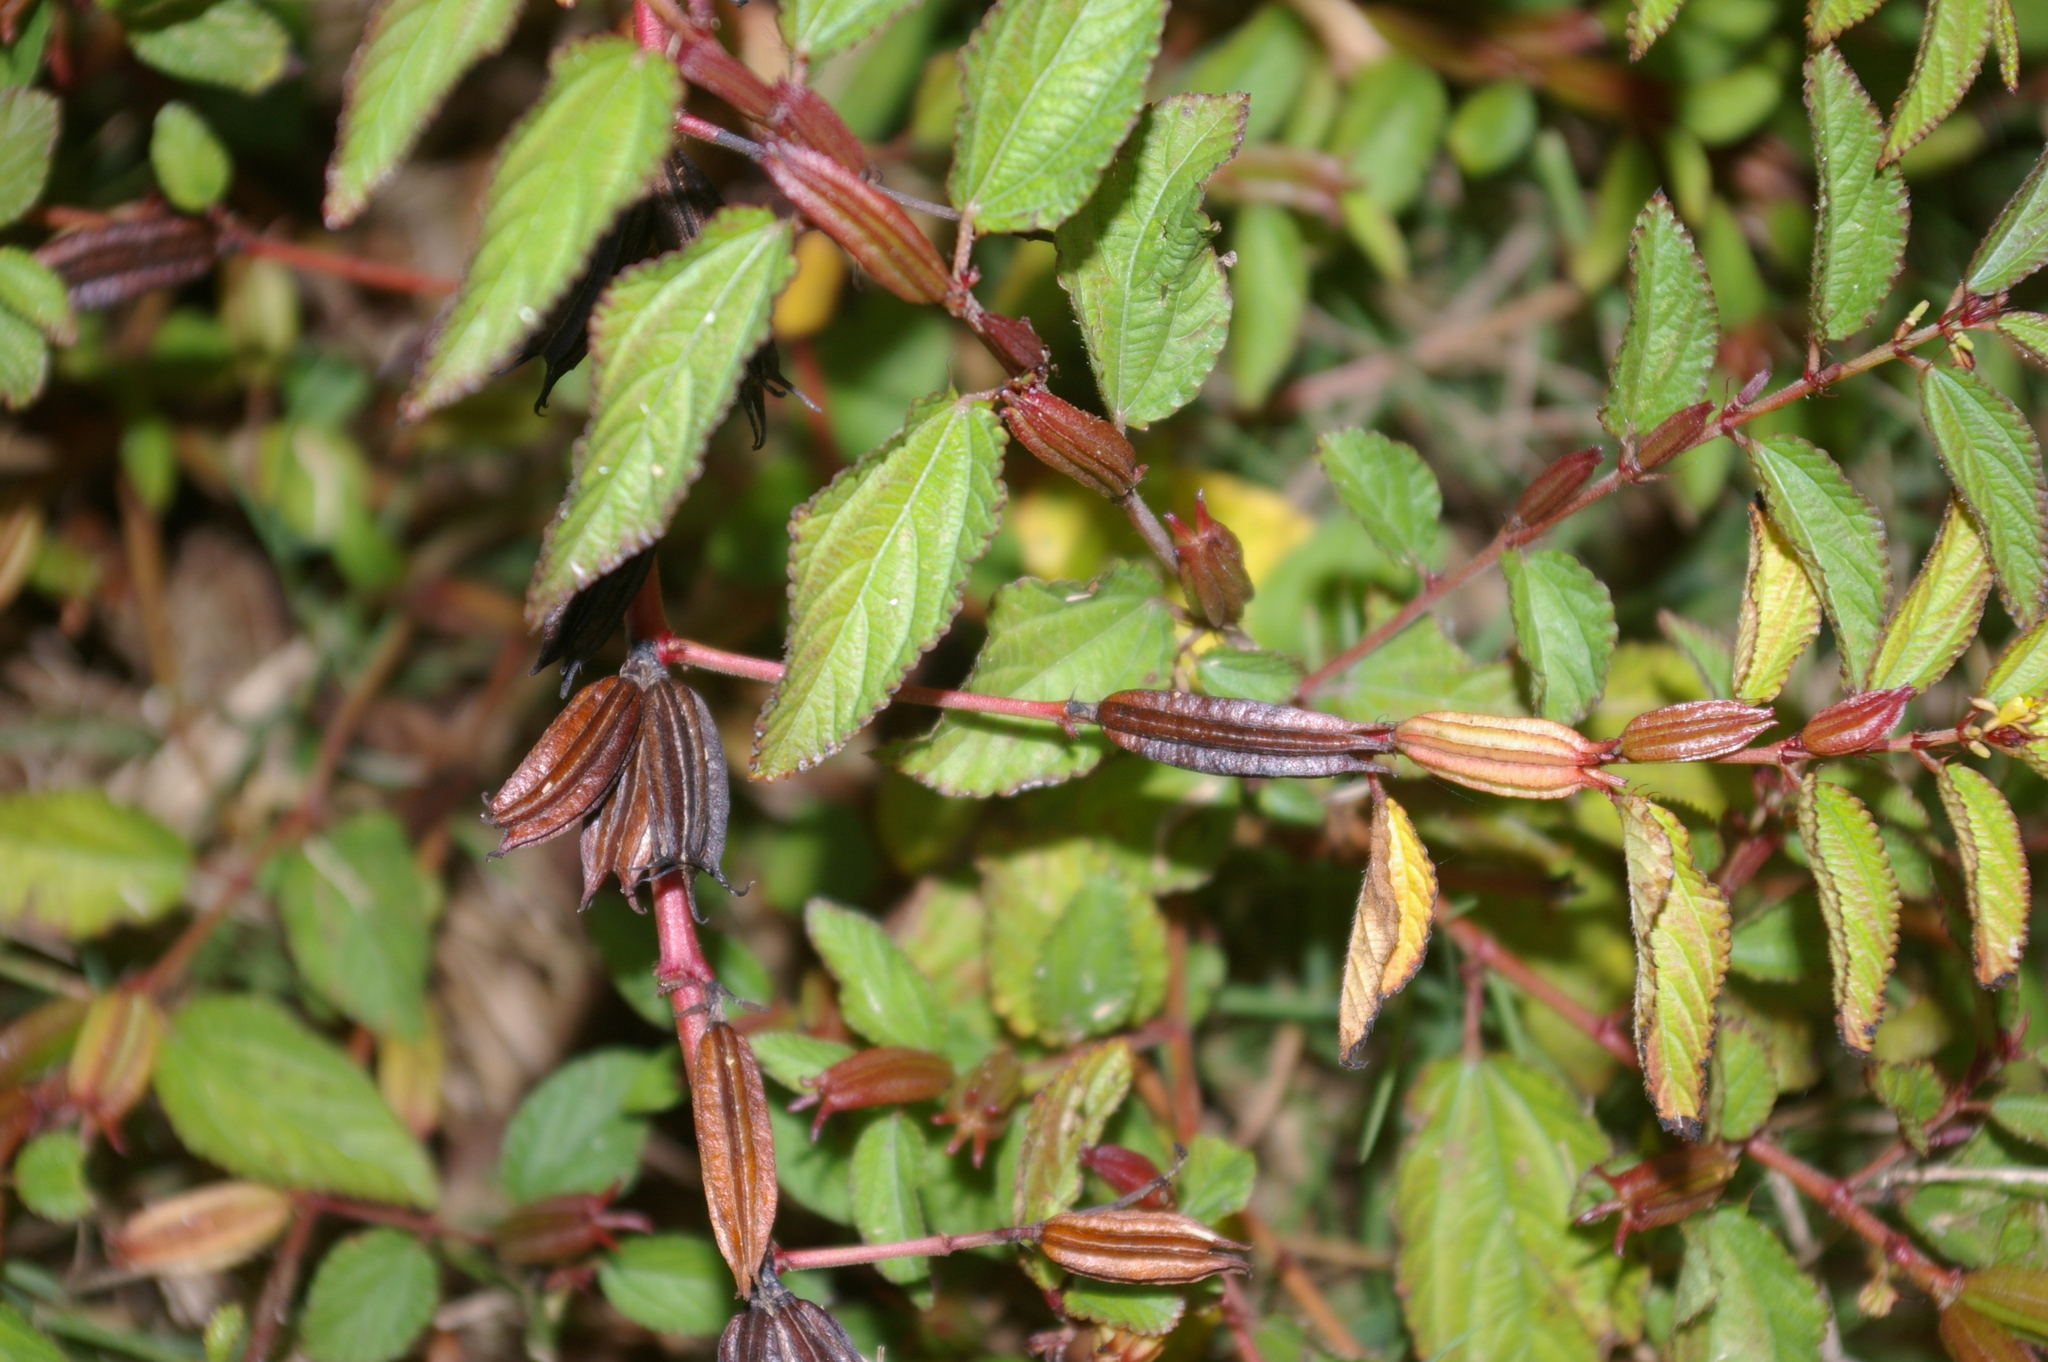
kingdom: Plantae
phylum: Tracheophyta
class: Magnoliopsida
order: Malvales
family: Malvaceae
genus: Corchorus
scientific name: Corchorus aestuans
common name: Jute
